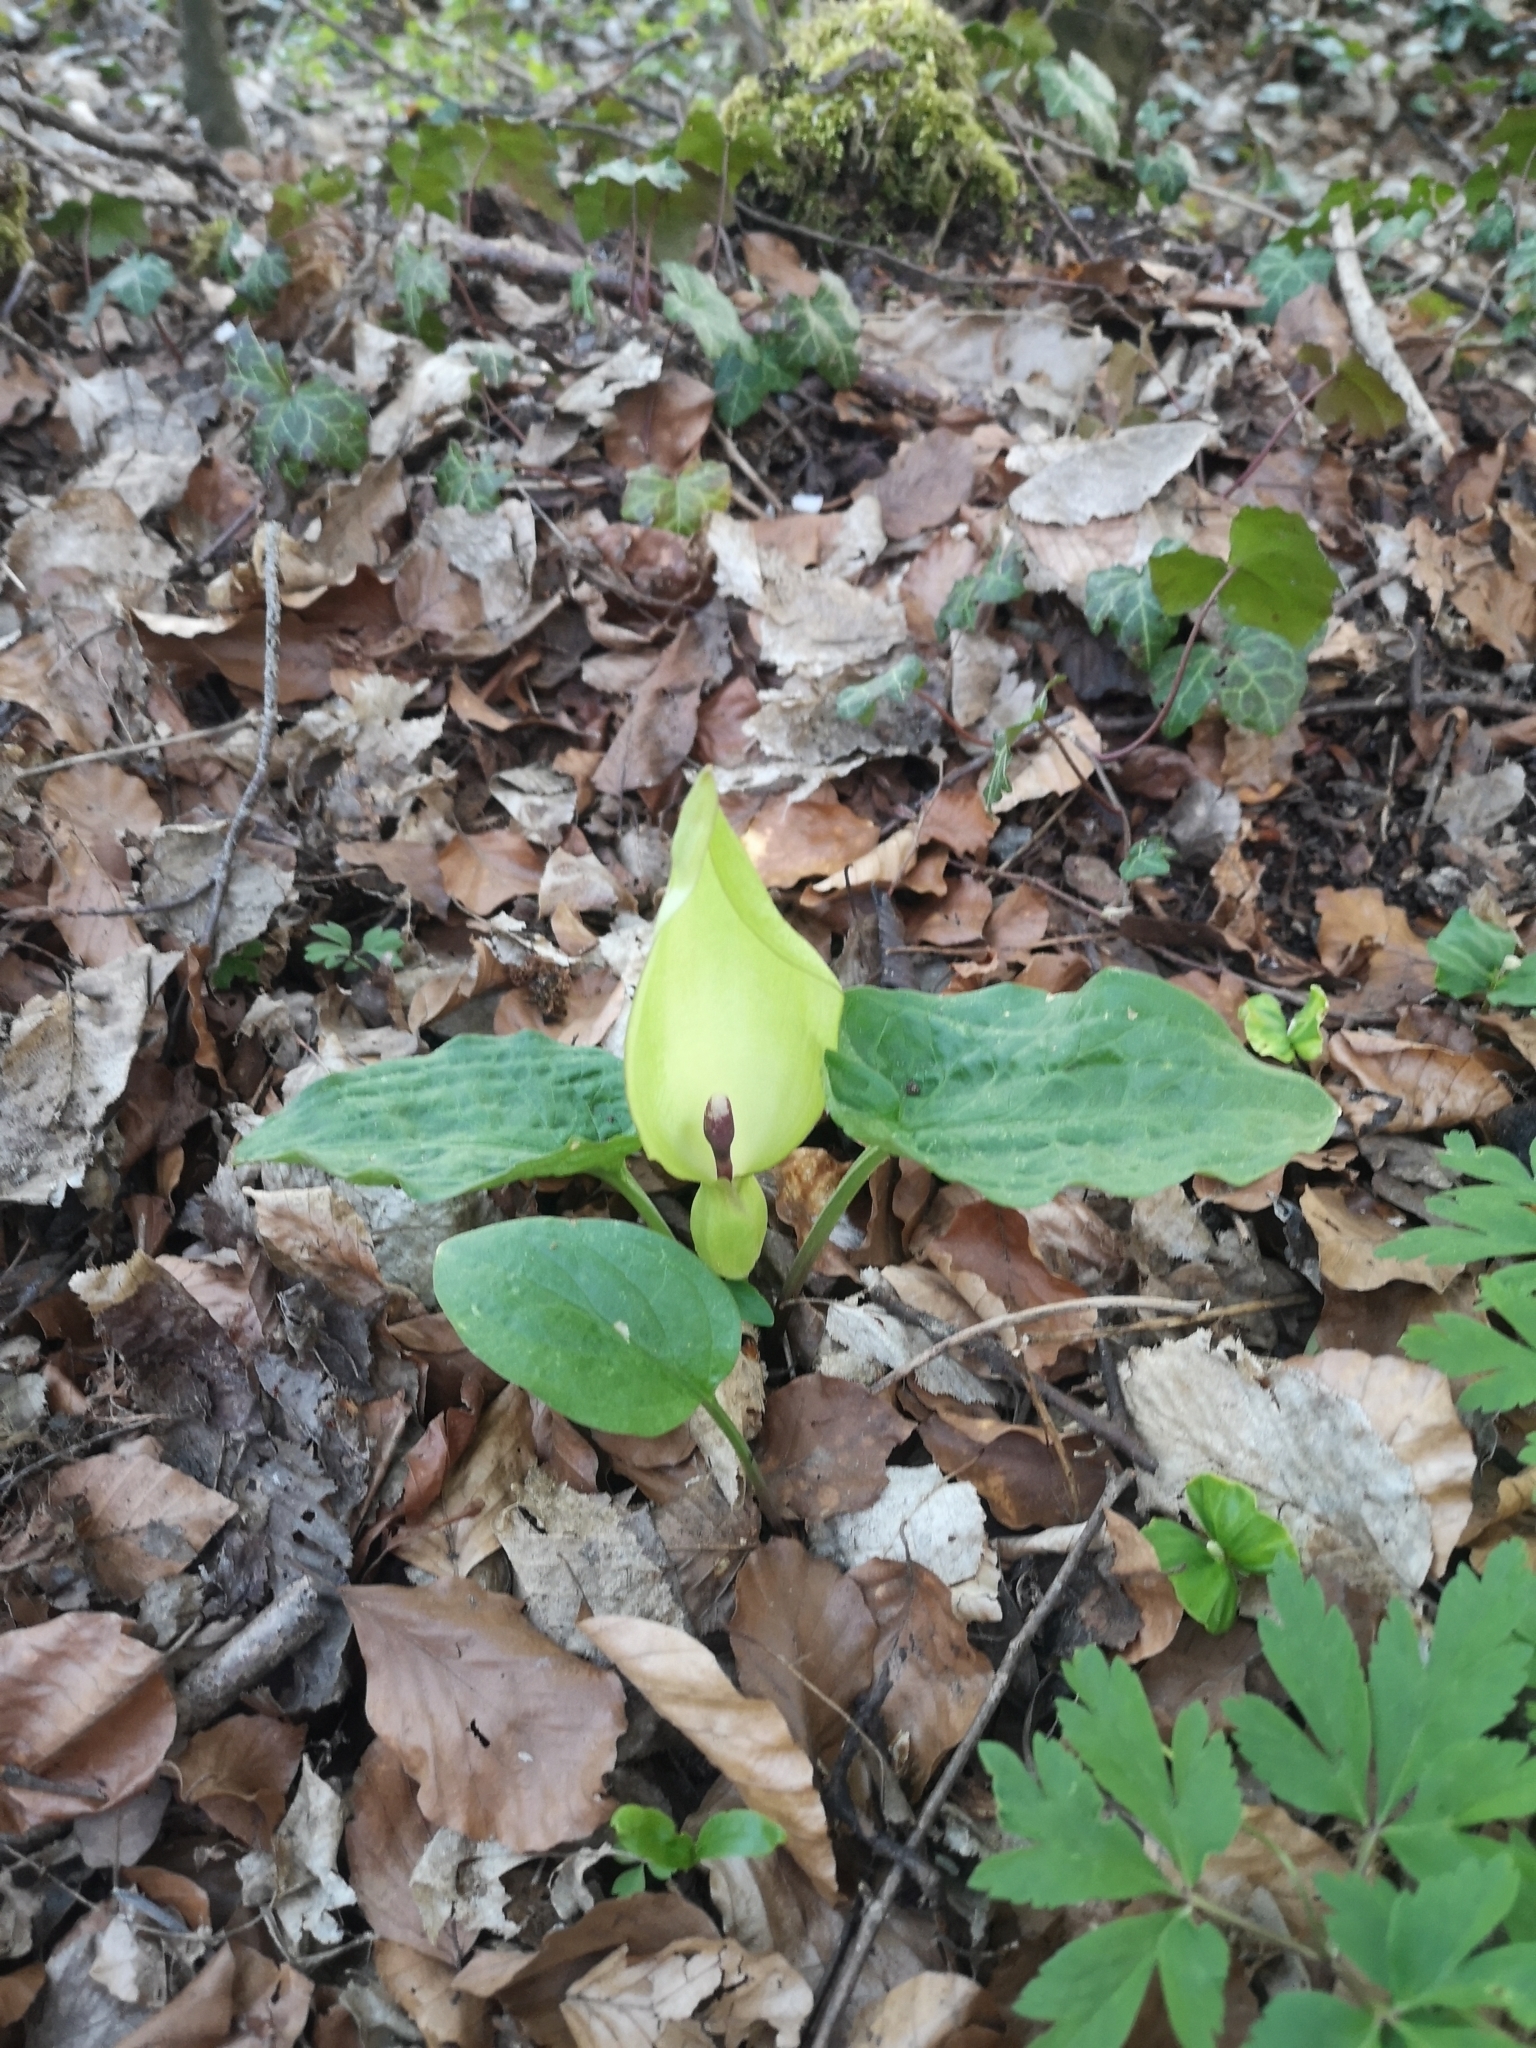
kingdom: Plantae
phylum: Tracheophyta
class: Liliopsida
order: Alismatales
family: Araceae
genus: Arum
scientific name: Arum maculatum
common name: Lords-and-ladies
